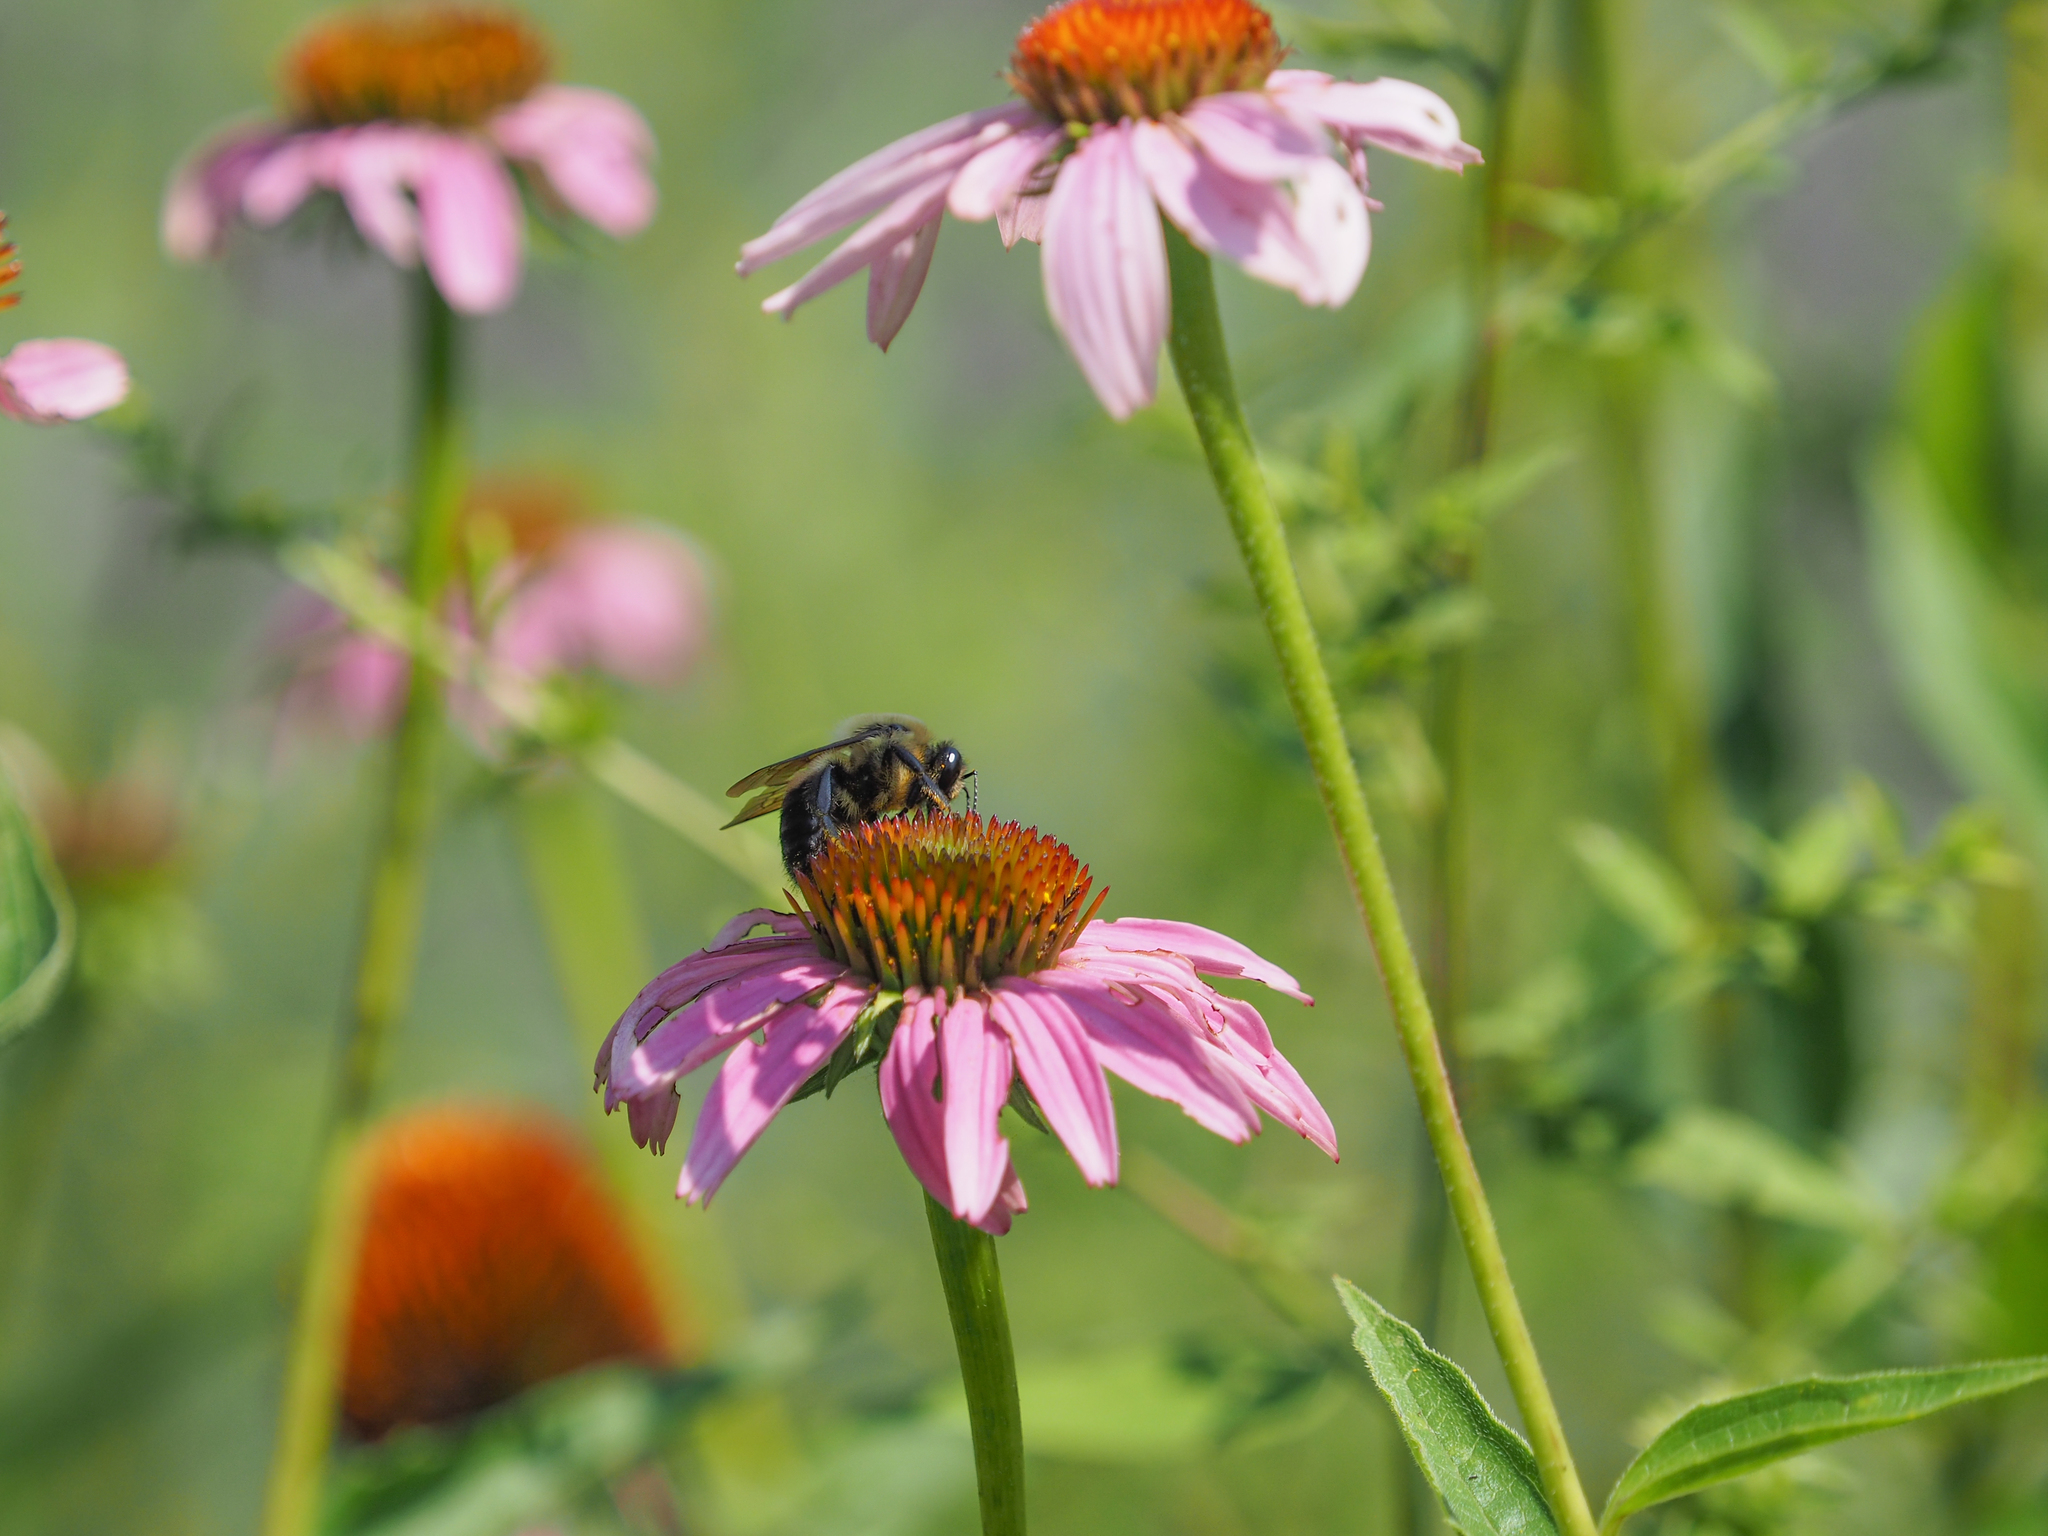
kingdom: Animalia
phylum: Arthropoda
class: Insecta
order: Hymenoptera
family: Apidae
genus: Bombus
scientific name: Bombus griseocollis
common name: Brown-belted bumble bee
